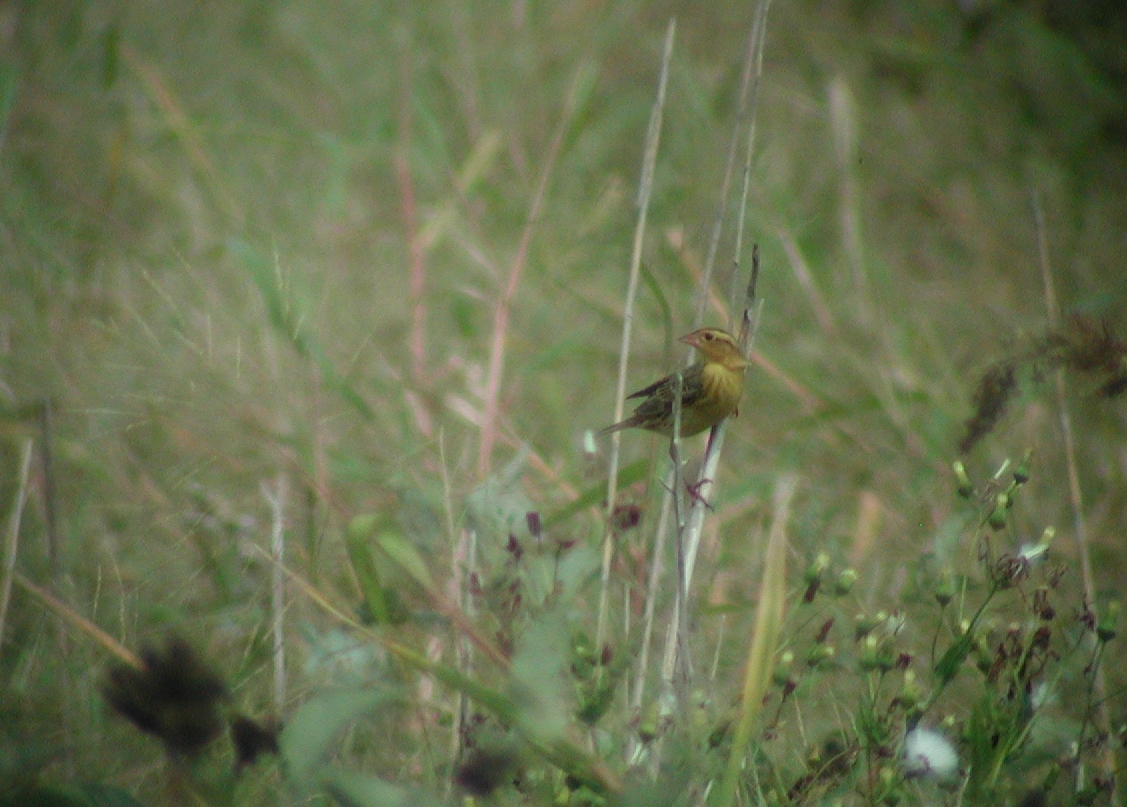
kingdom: Animalia
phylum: Chordata
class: Aves
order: Passeriformes
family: Icteridae
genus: Dolichonyx
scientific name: Dolichonyx oryzivorus
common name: Bobolink
